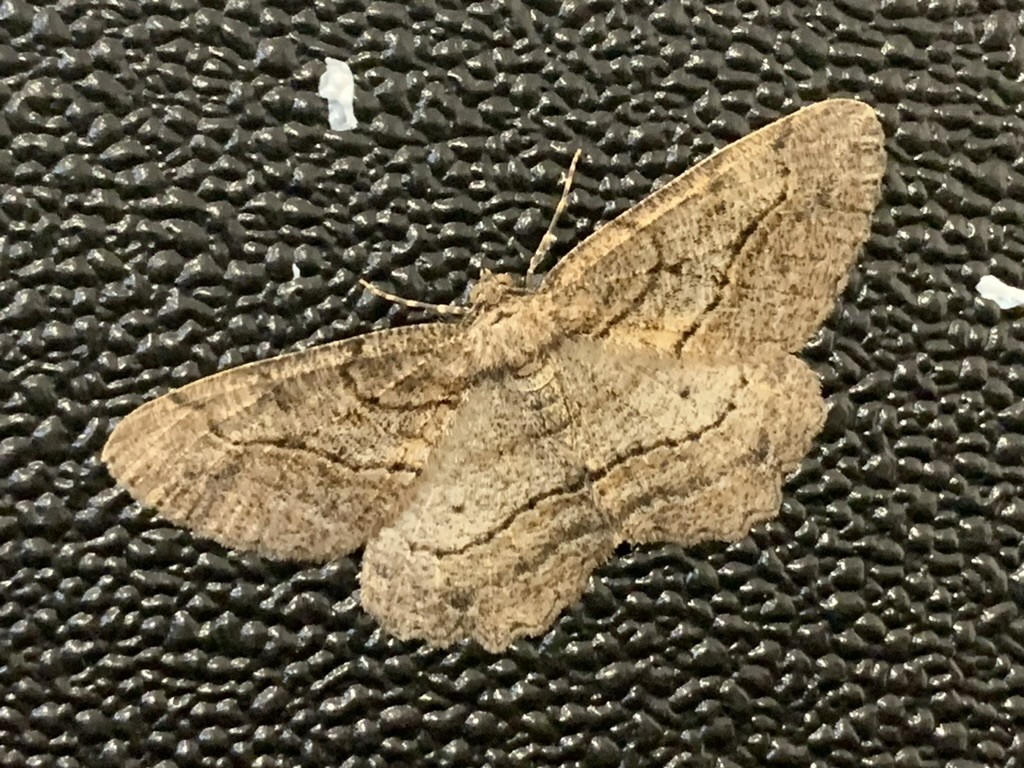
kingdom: Animalia
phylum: Arthropoda
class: Insecta
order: Lepidoptera
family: Geometridae
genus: Neoalcis
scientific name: Neoalcis californiaria
